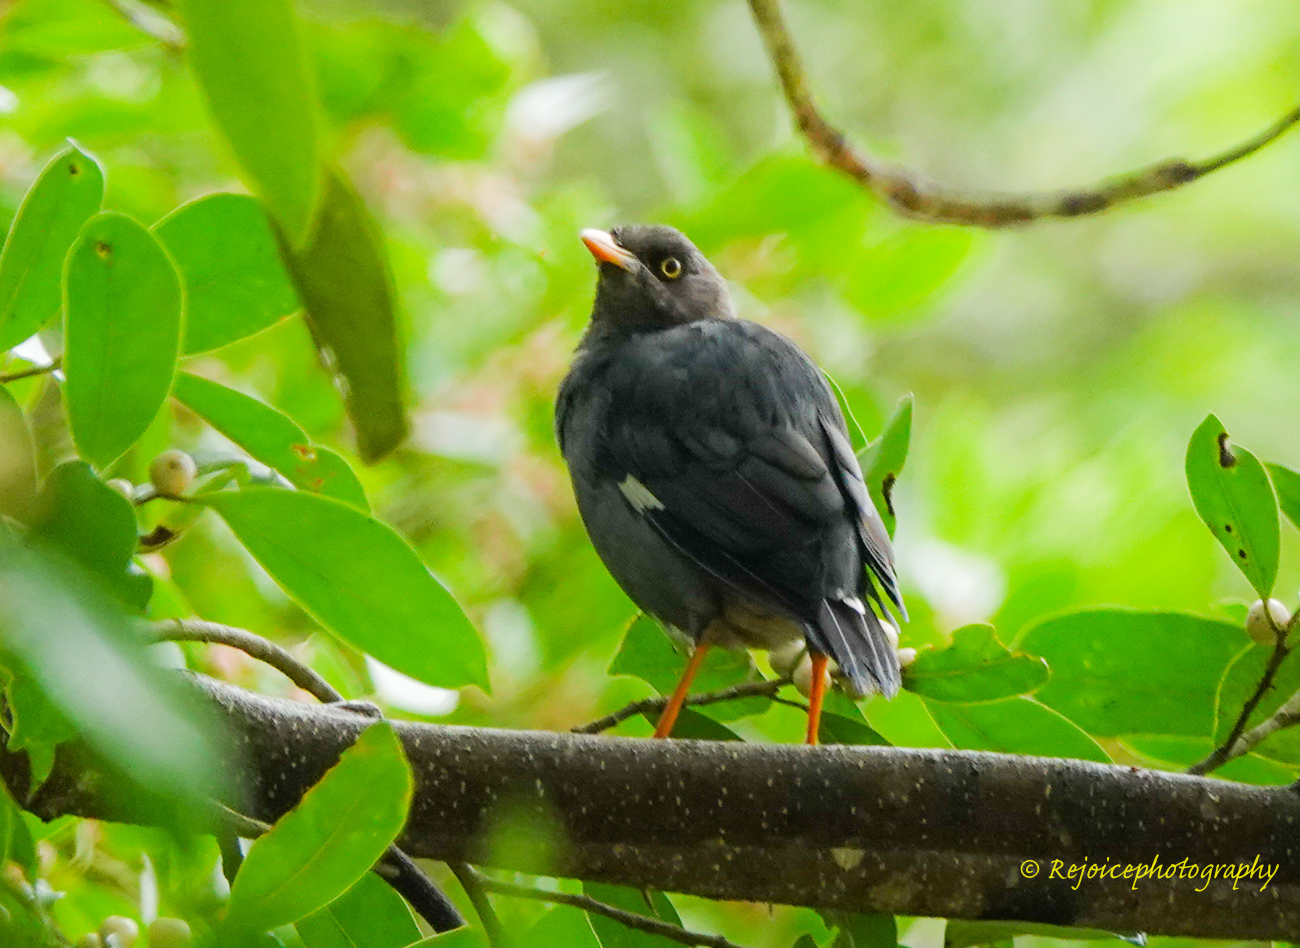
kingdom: Animalia
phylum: Chordata
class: Aves
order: Passeriformes
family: Sturnidae
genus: Acridotheres
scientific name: Acridotheres fuscus
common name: Jungle myna
